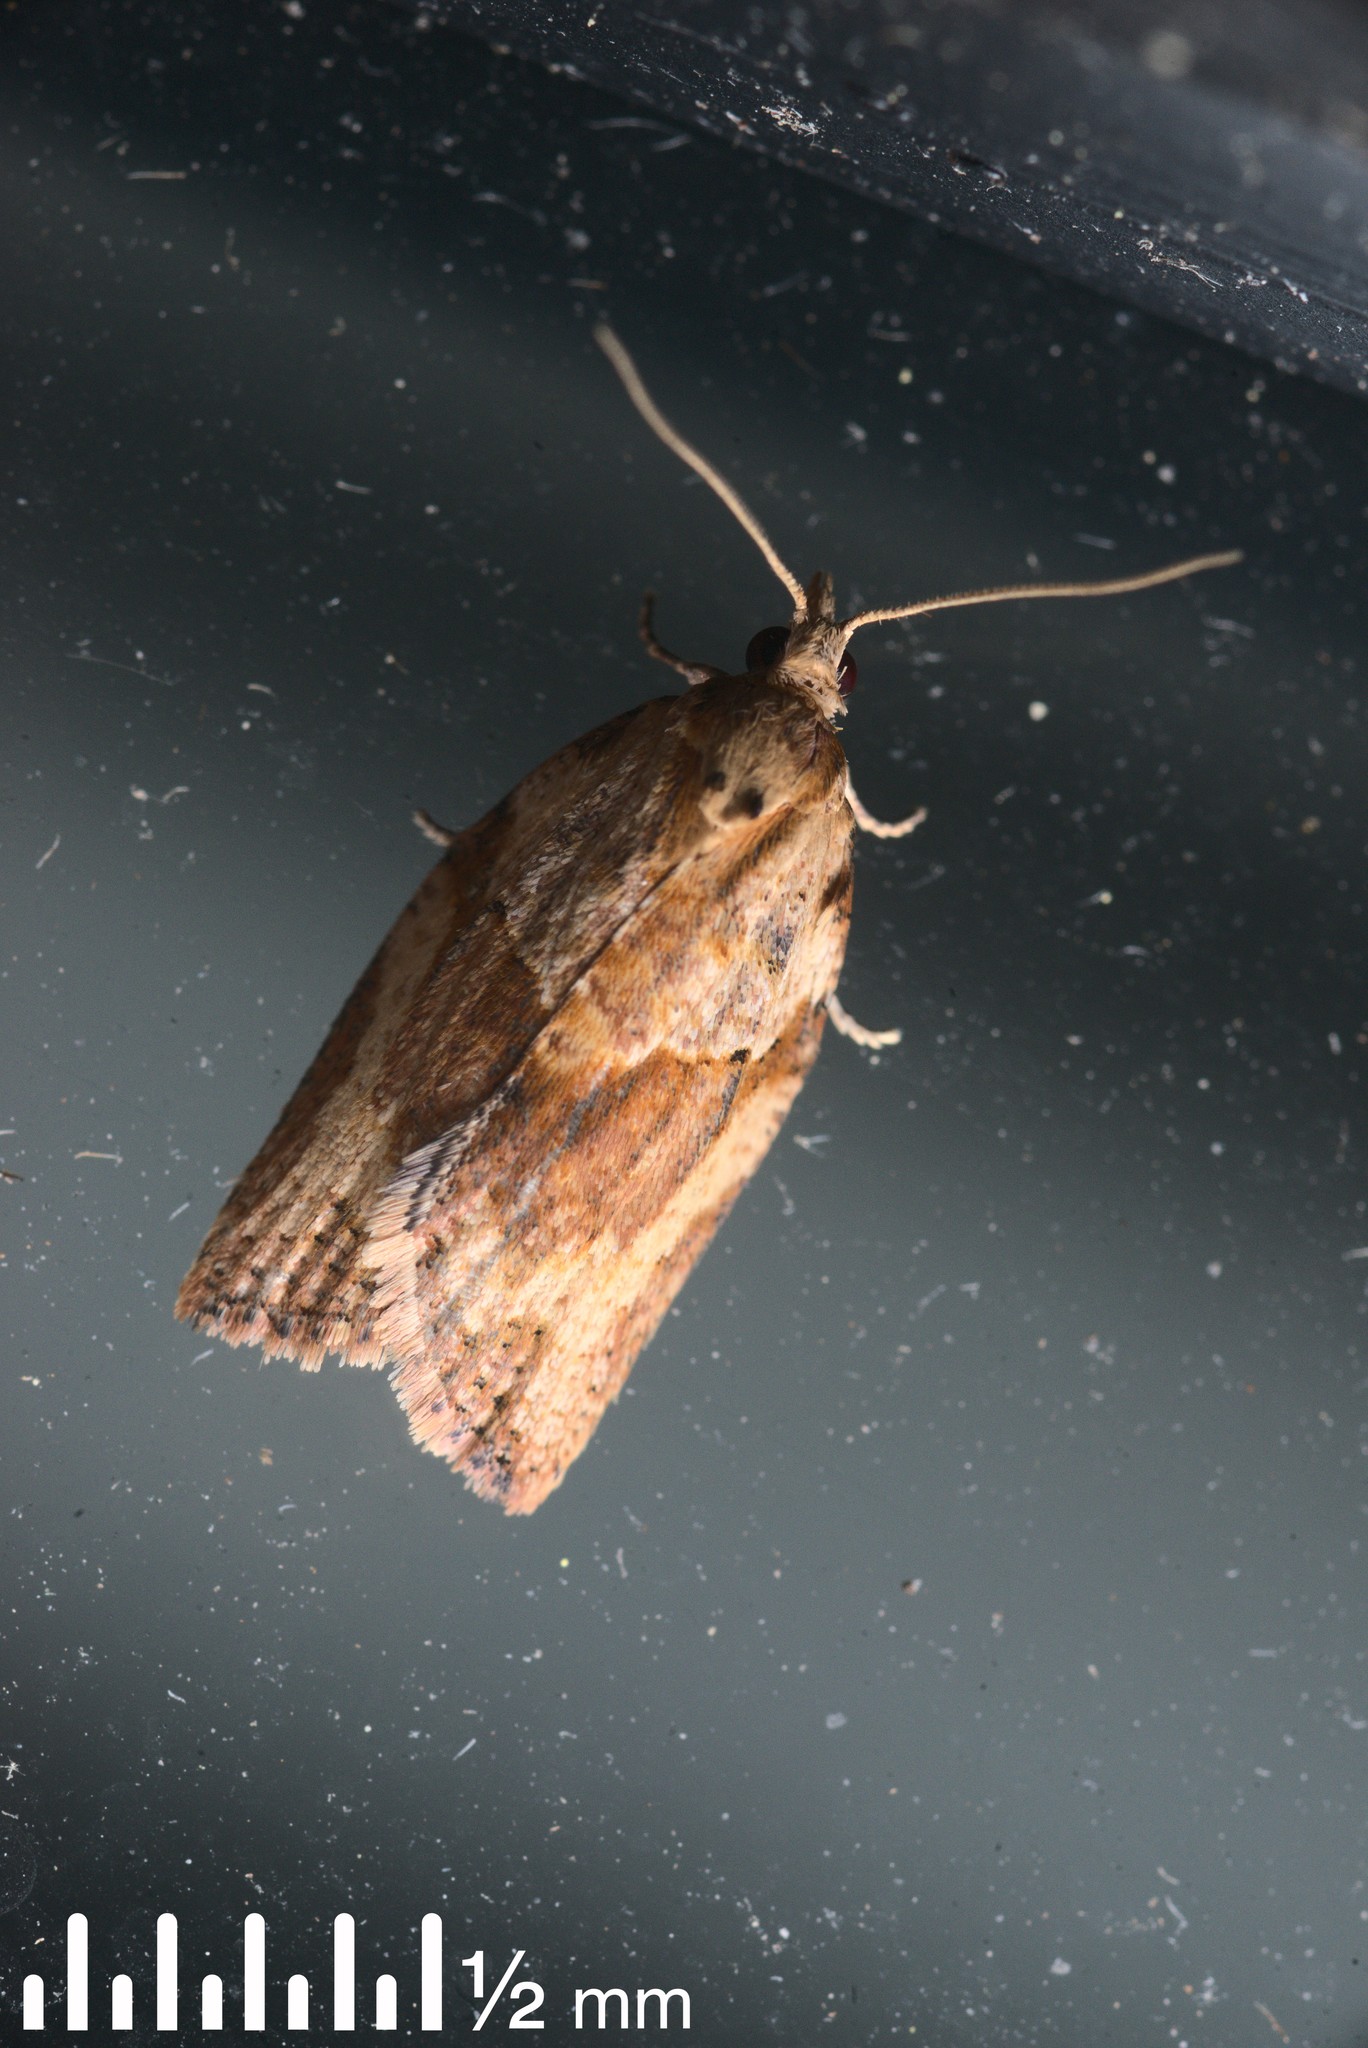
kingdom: Animalia
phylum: Arthropoda
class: Insecta
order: Lepidoptera
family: Tortricidae
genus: Epiphyas
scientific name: Epiphyas postvittana
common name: Light brown apple moth
